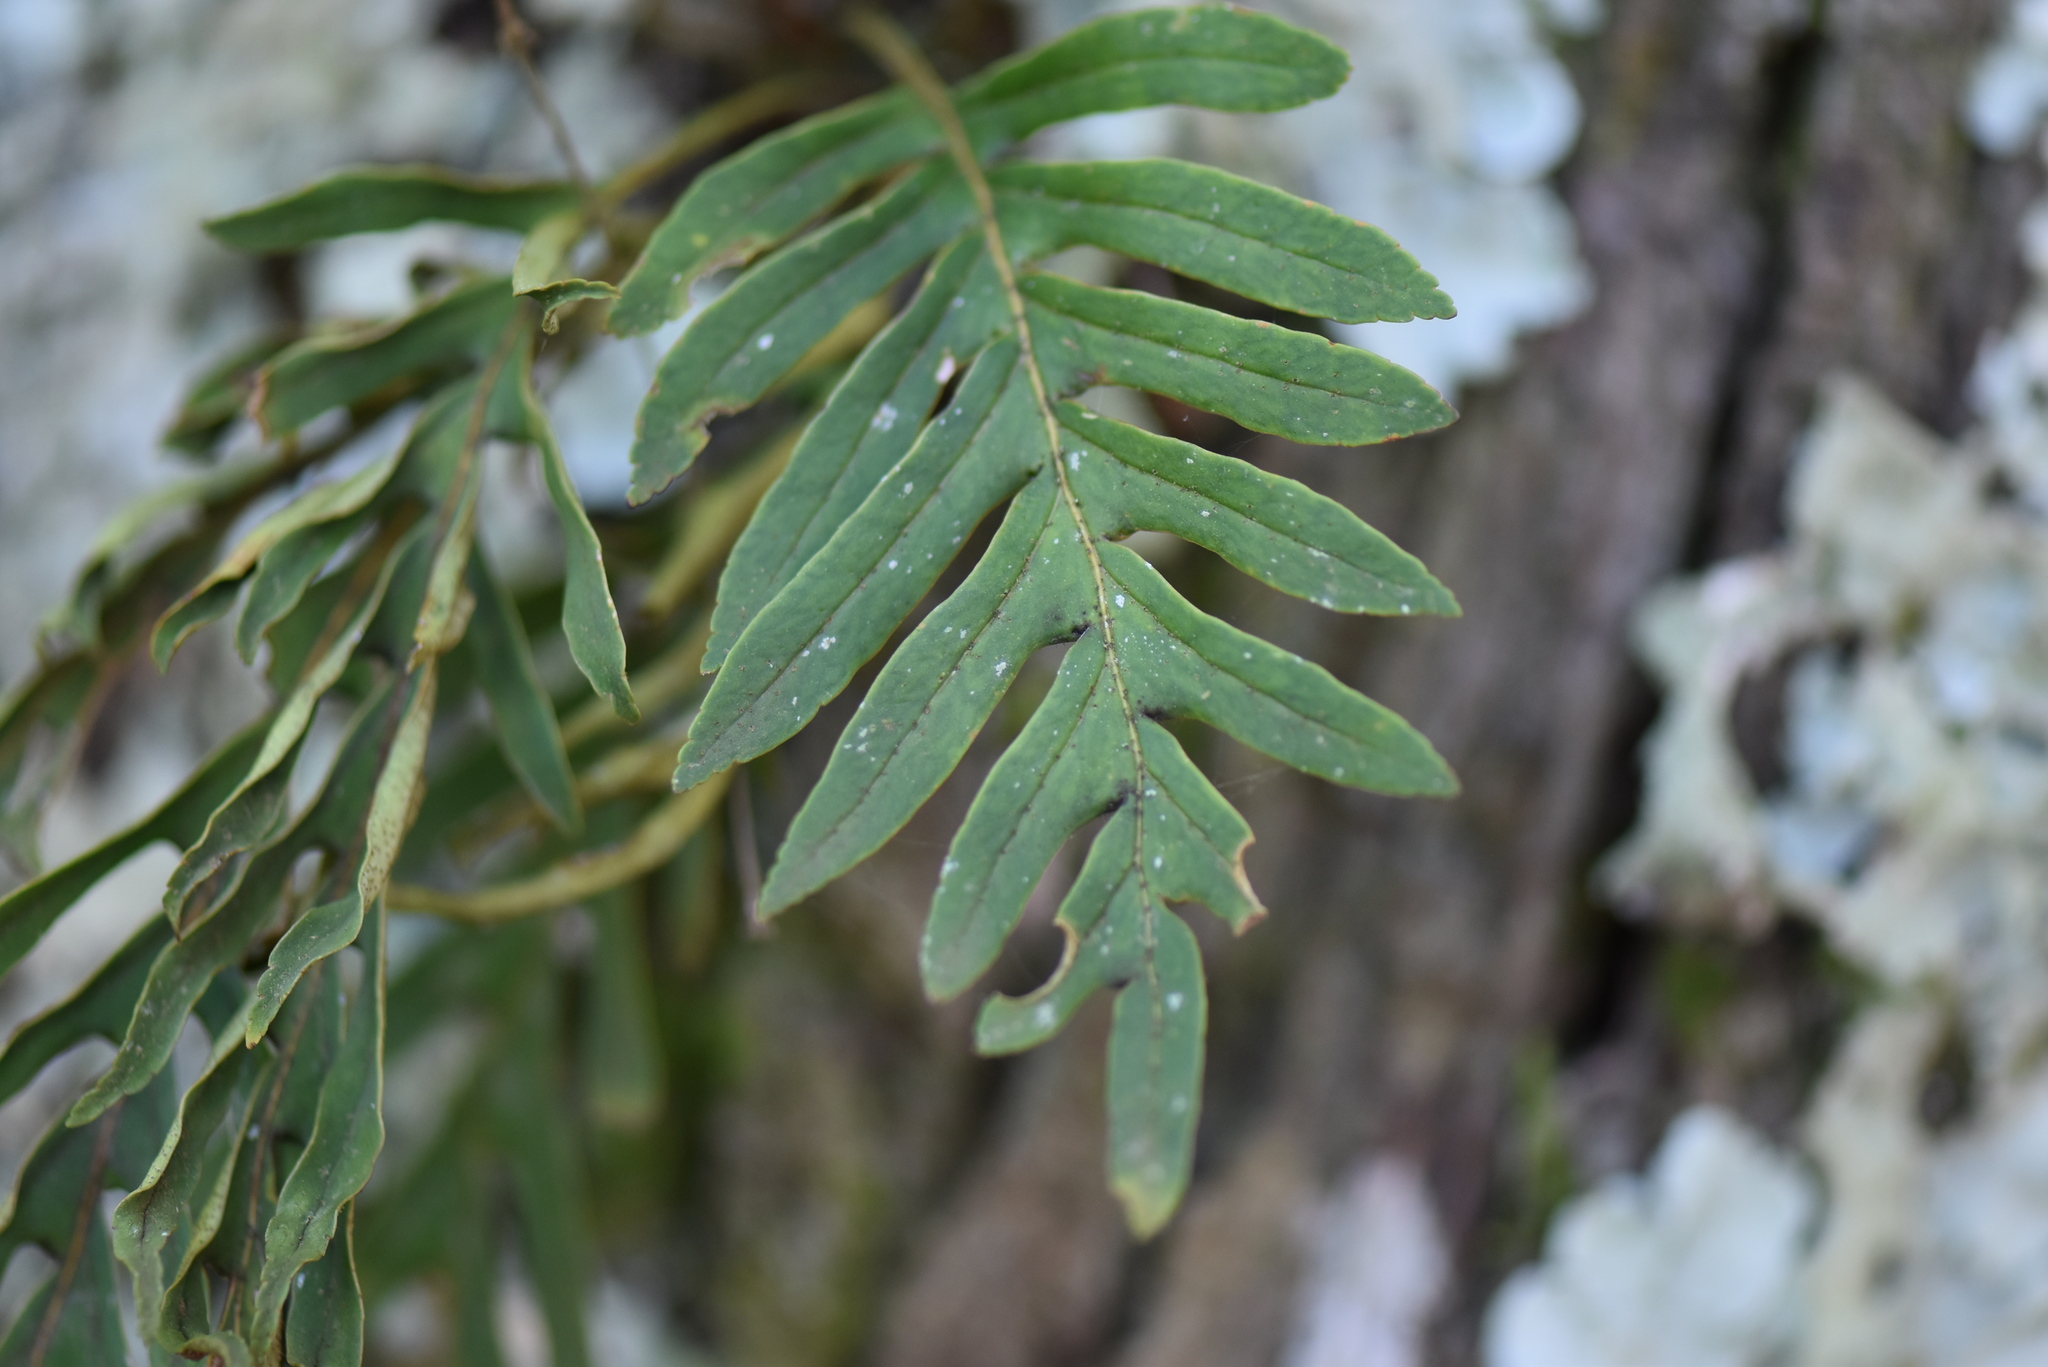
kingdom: Plantae
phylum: Tracheophyta
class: Polypodiopsida
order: Polypodiales
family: Polypodiaceae
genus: Pleopeltis
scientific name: Pleopeltis pleopeltifolia
